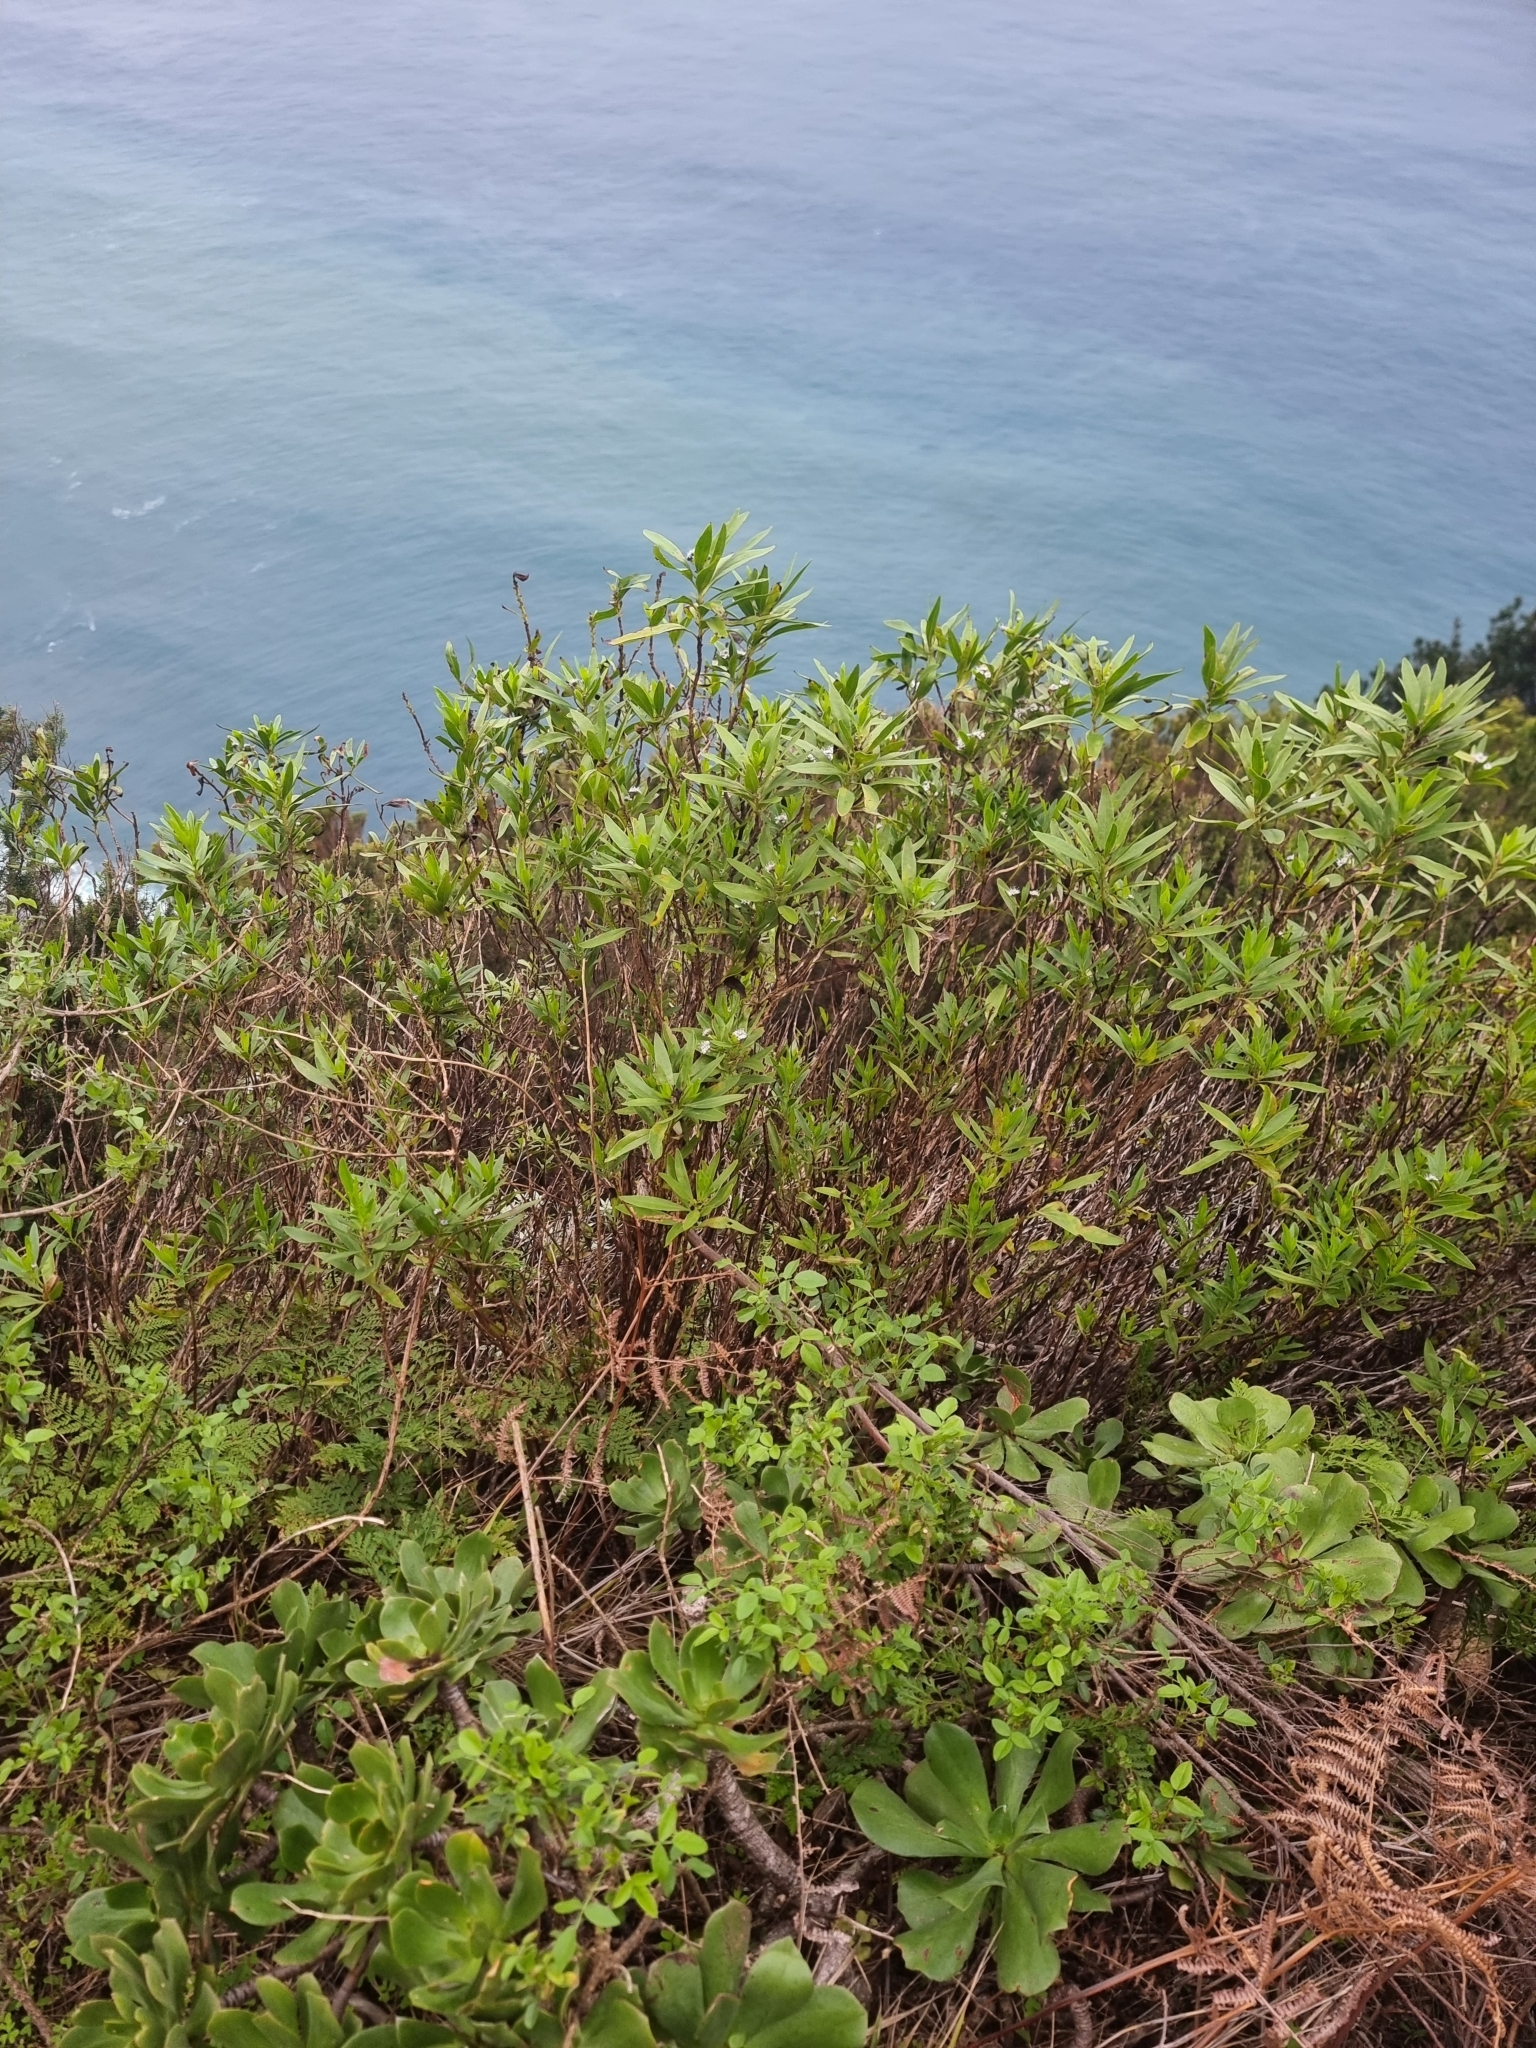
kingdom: Plantae
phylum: Tracheophyta
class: Magnoliopsida
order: Lamiales
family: Plantaginaceae
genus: Globularia
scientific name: Globularia salicina
